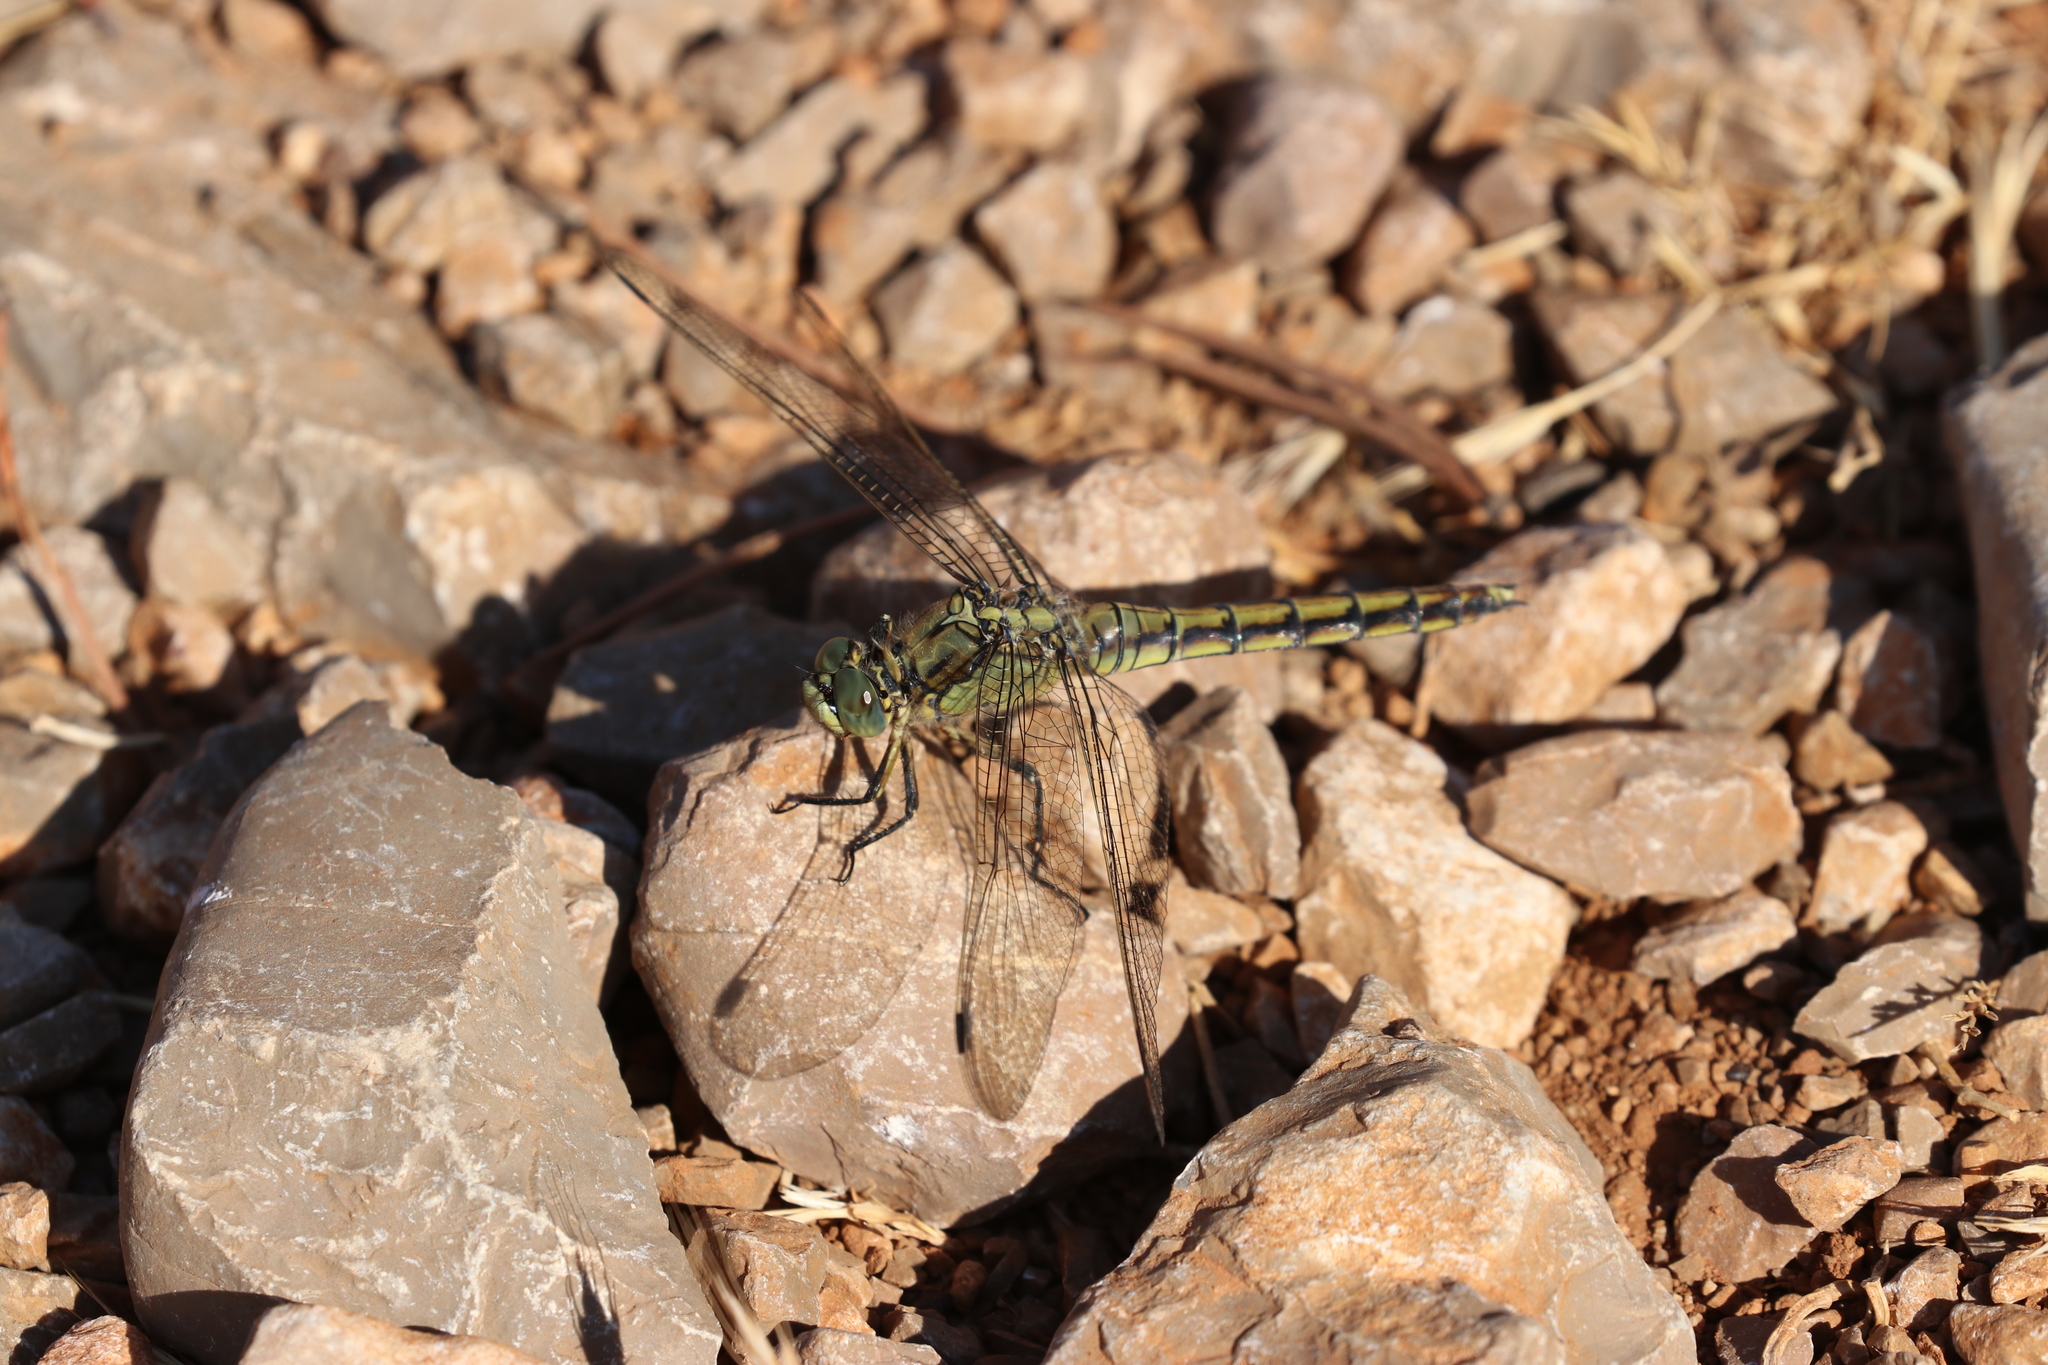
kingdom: Animalia
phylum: Arthropoda
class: Insecta
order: Odonata
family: Libellulidae
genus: Orthetrum
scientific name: Orthetrum cancellatum
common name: Black-tailed skimmer
